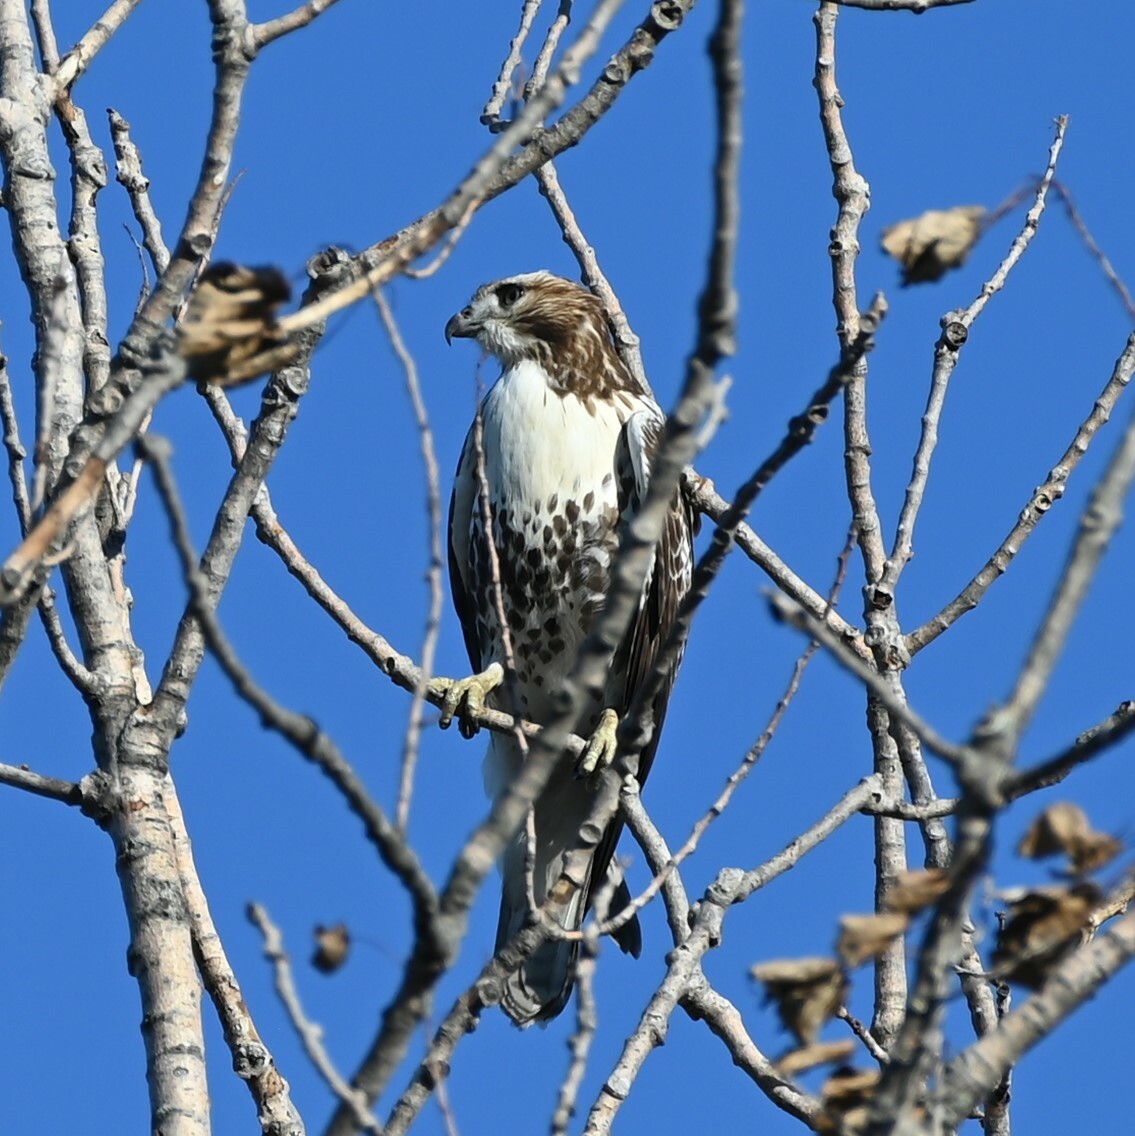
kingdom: Animalia
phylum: Chordata
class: Aves
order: Accipitriformes
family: Accipitridae
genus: Buteo
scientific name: Buteo jamaicensis
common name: Red-tailed hawk
